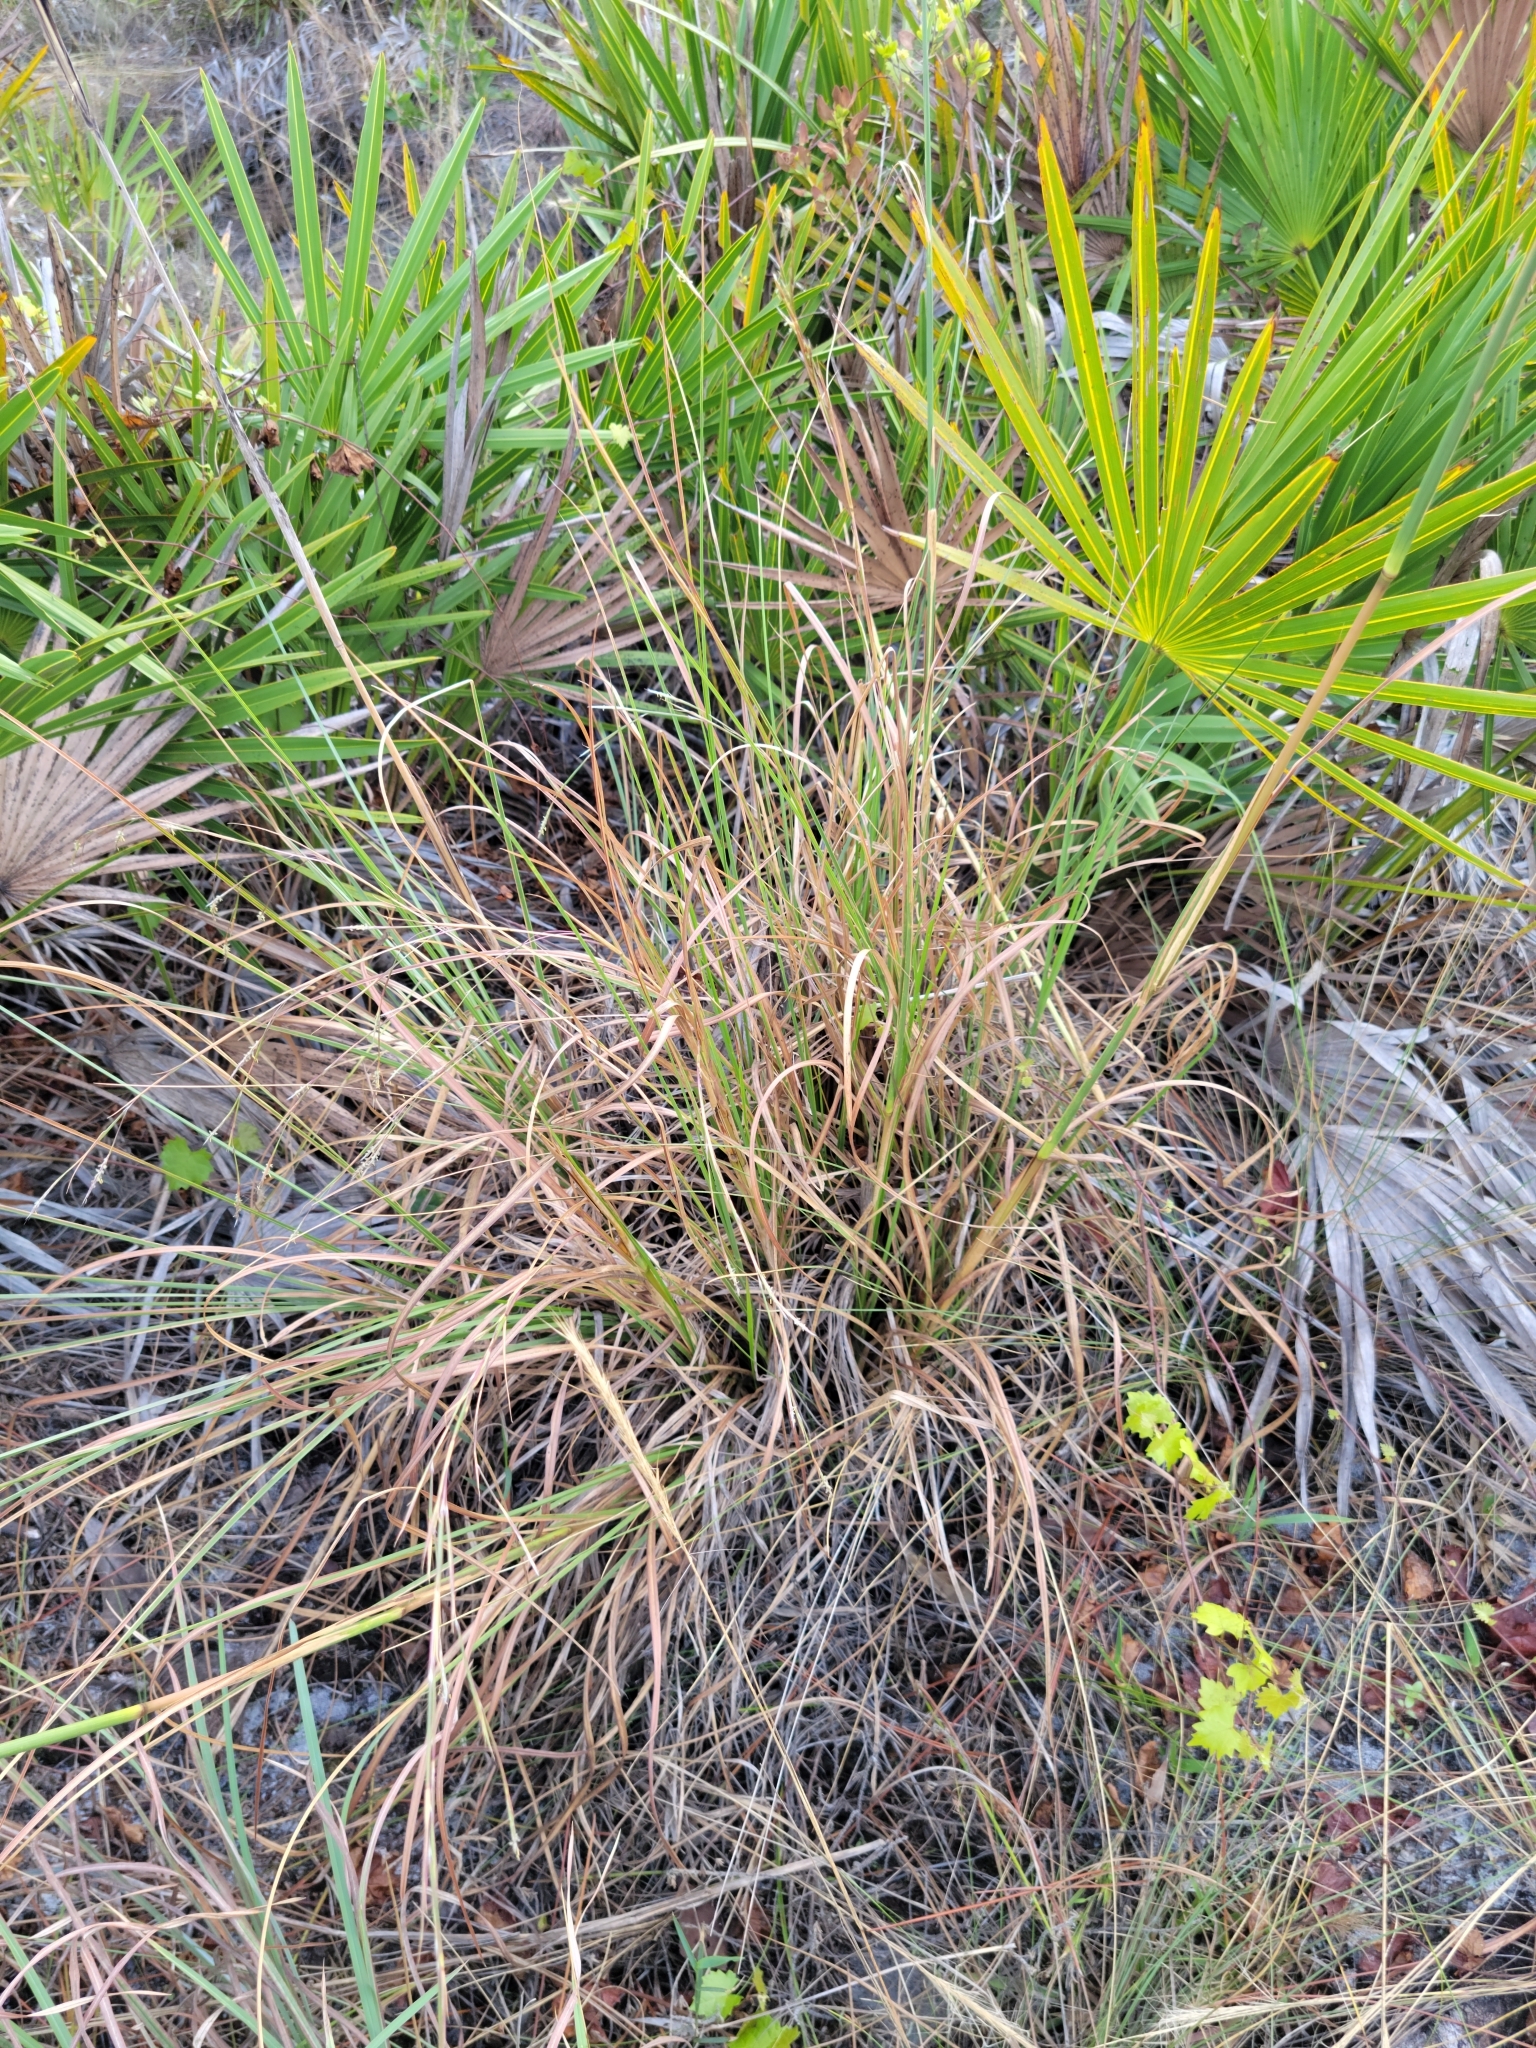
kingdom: Plantae
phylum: Tracheophyta
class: Liliopsida
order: Poales
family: Poaceae
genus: Andropogon
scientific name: Andropogon brachystachyus
